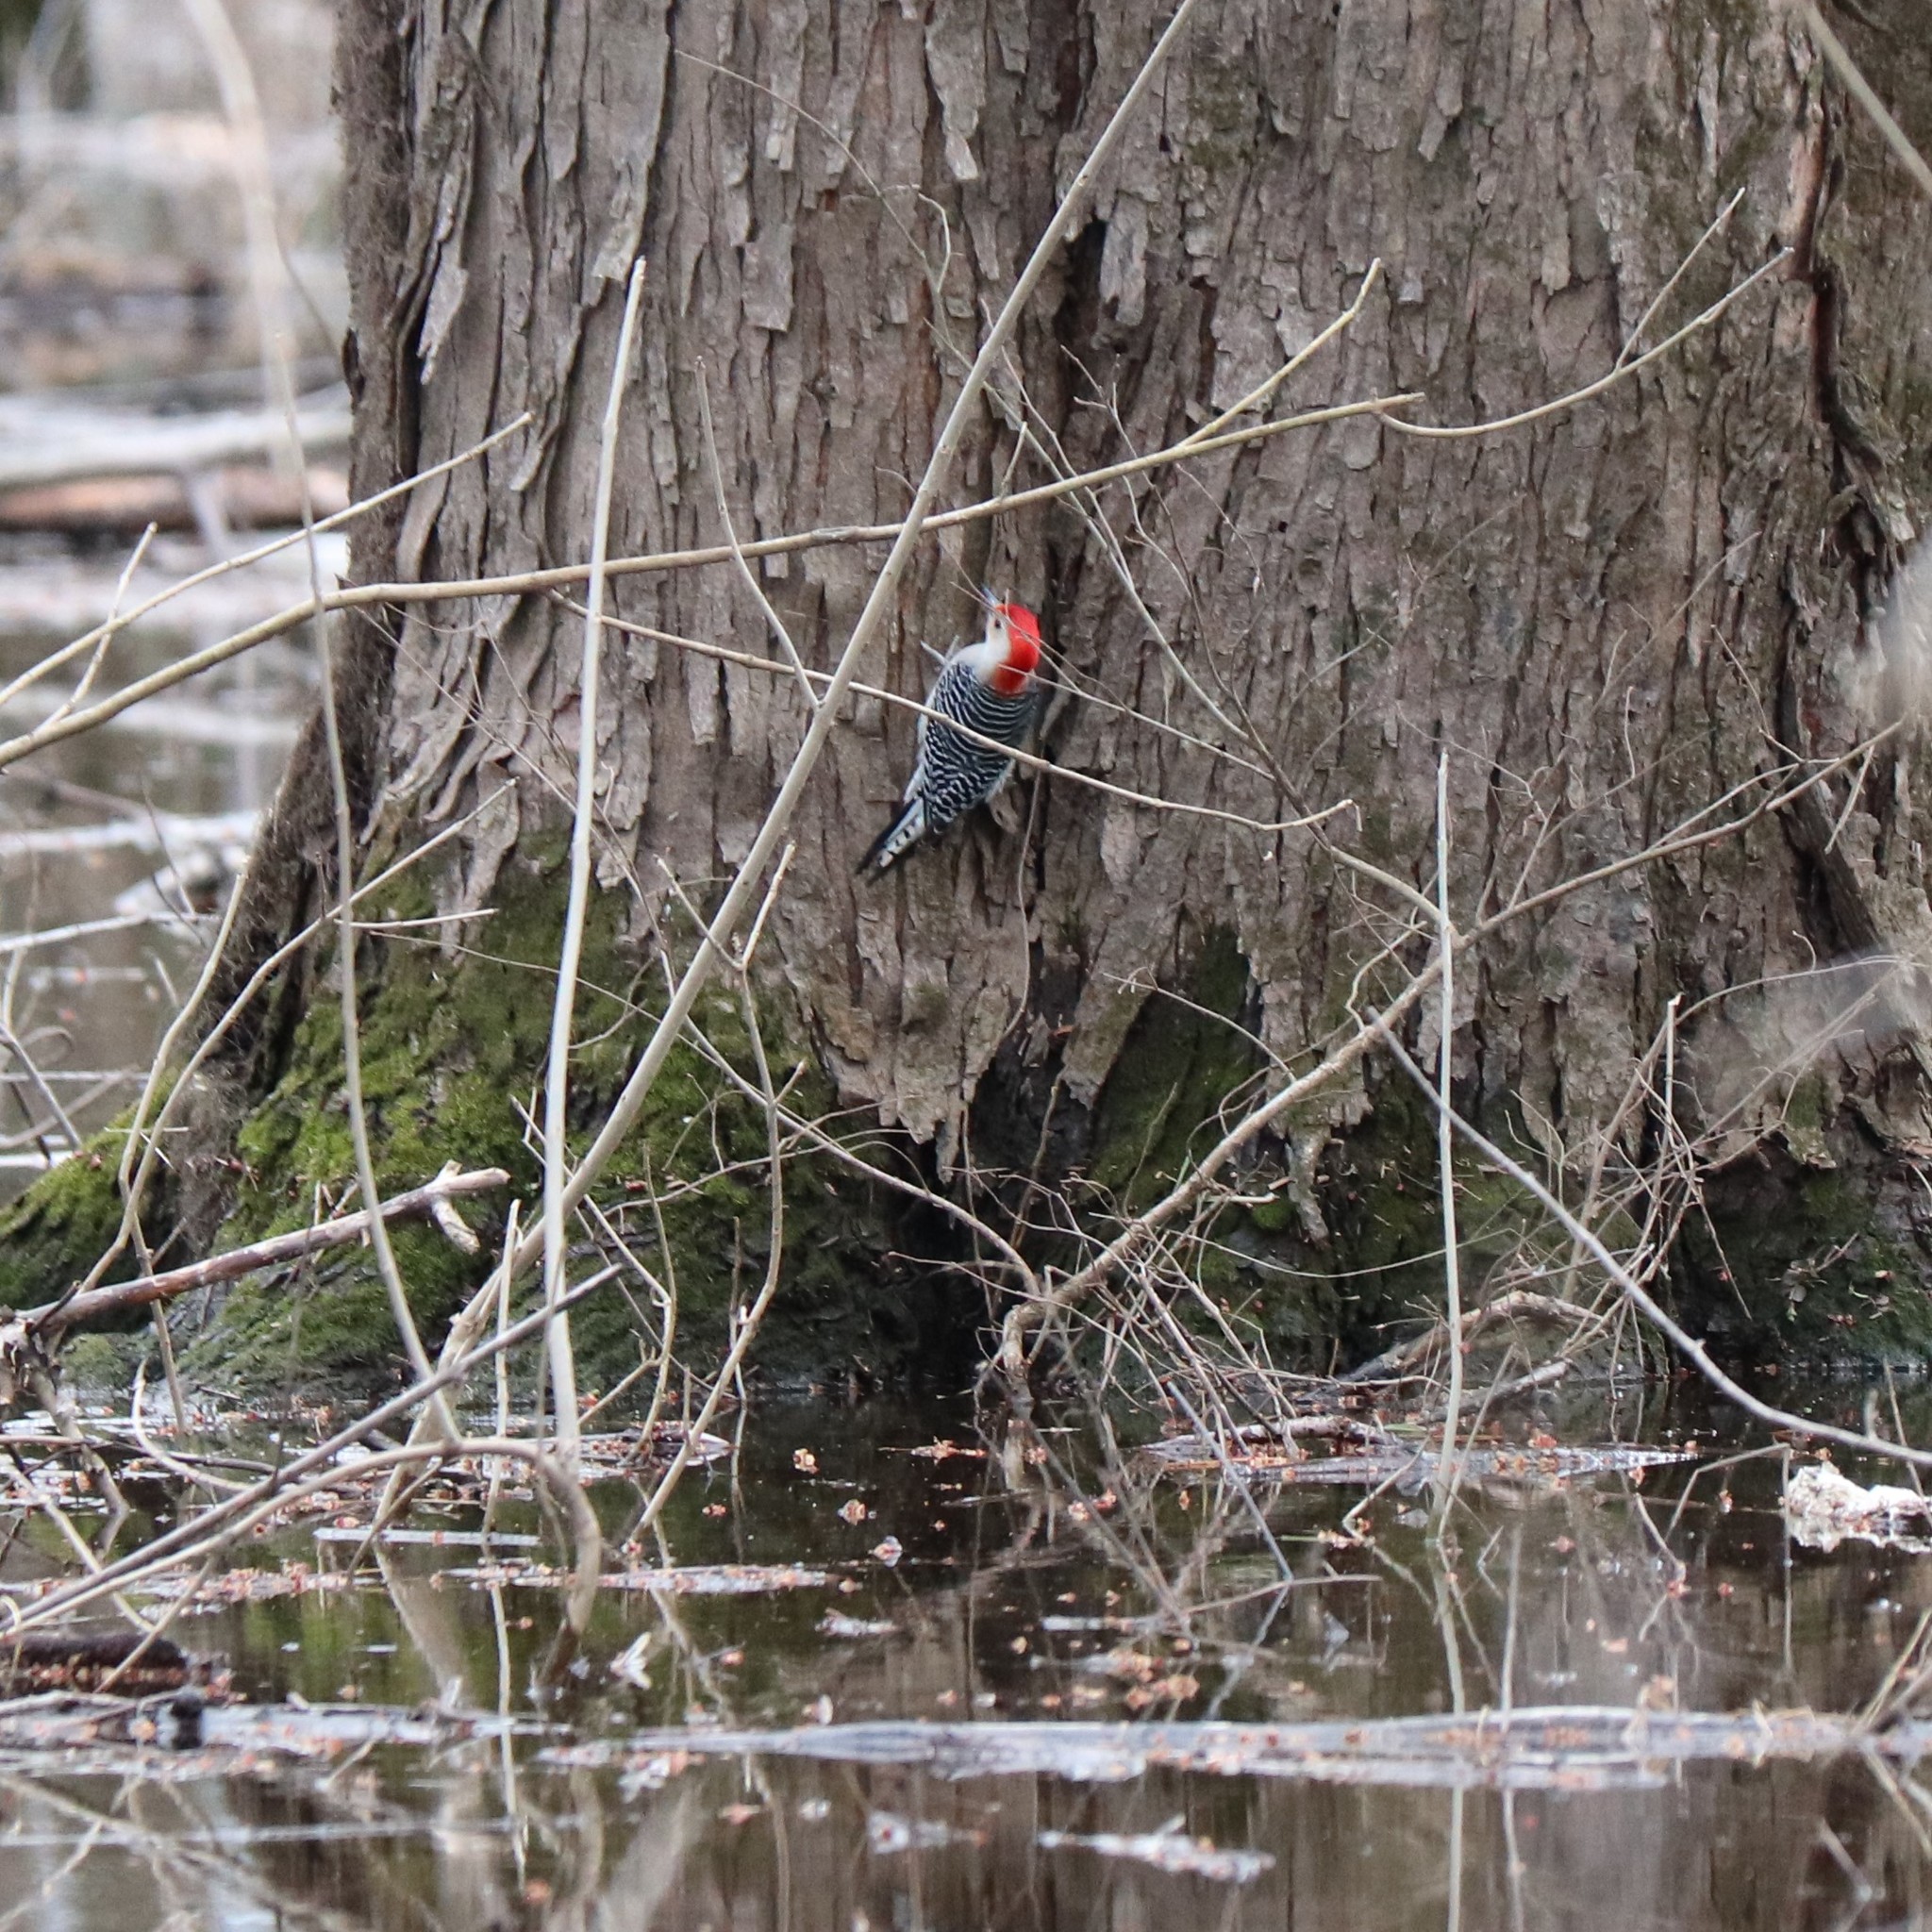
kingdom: Animalia
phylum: Chordata
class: Aves
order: Piciformes
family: Picidae
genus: Melanerpes
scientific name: Melanerpes carolinus
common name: Red-bellied woodpecker
